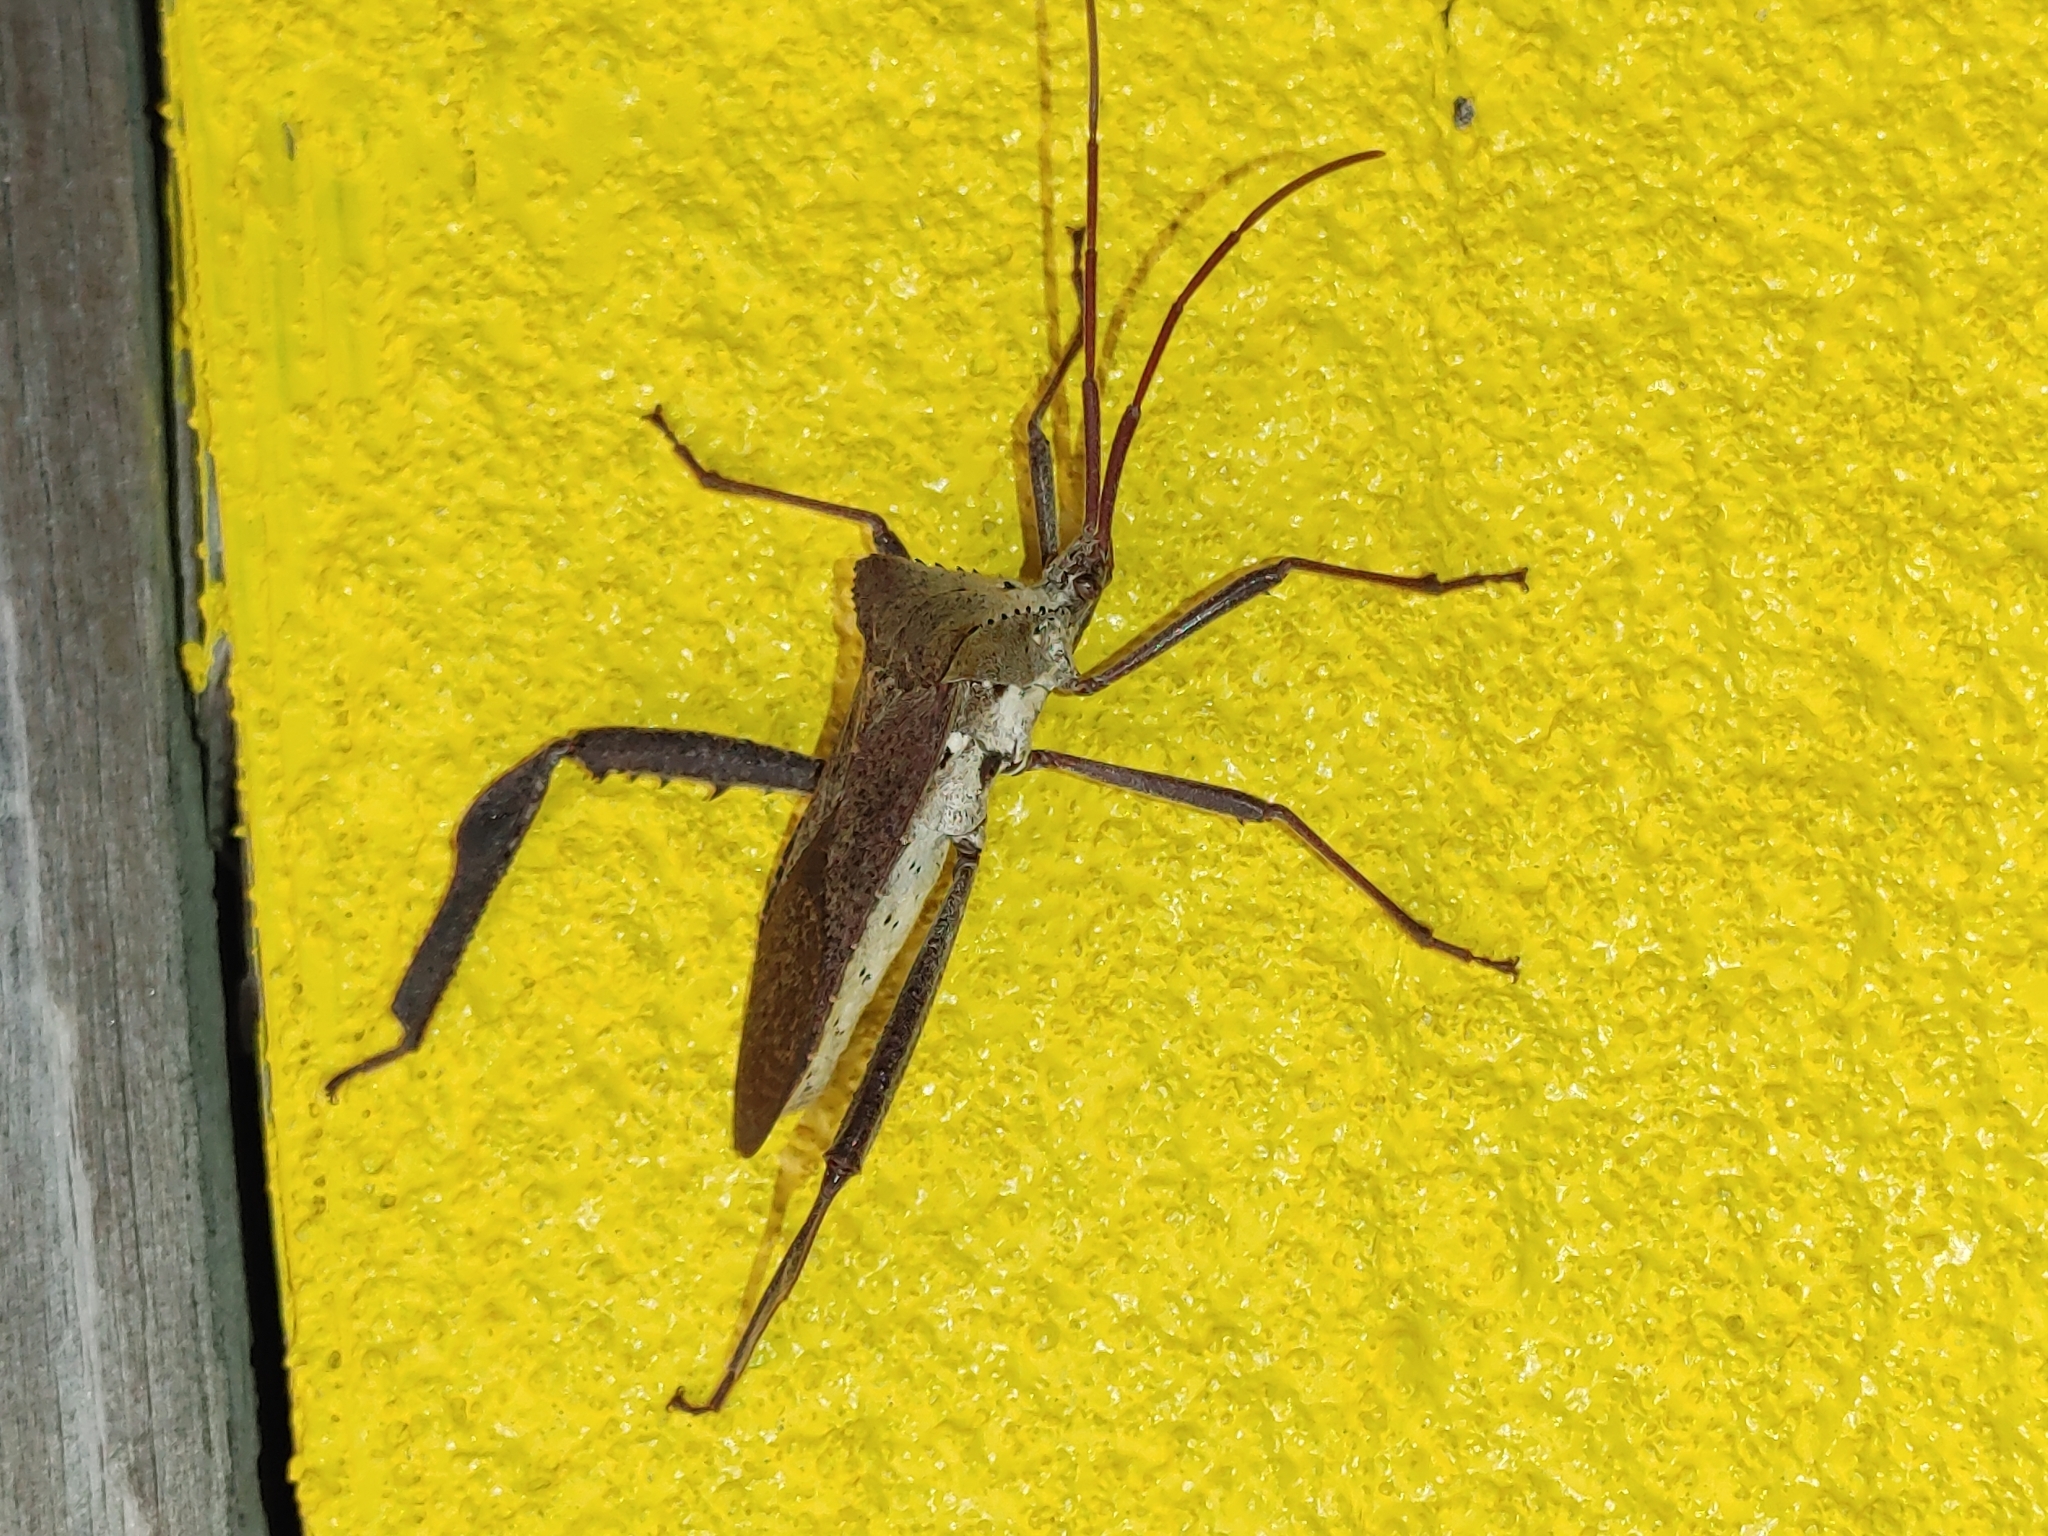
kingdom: Animalia
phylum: Arthropoda
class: Insecta
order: Hemiptera
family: Coreidae
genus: Acanthocephala
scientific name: Acanthocephala declivis
